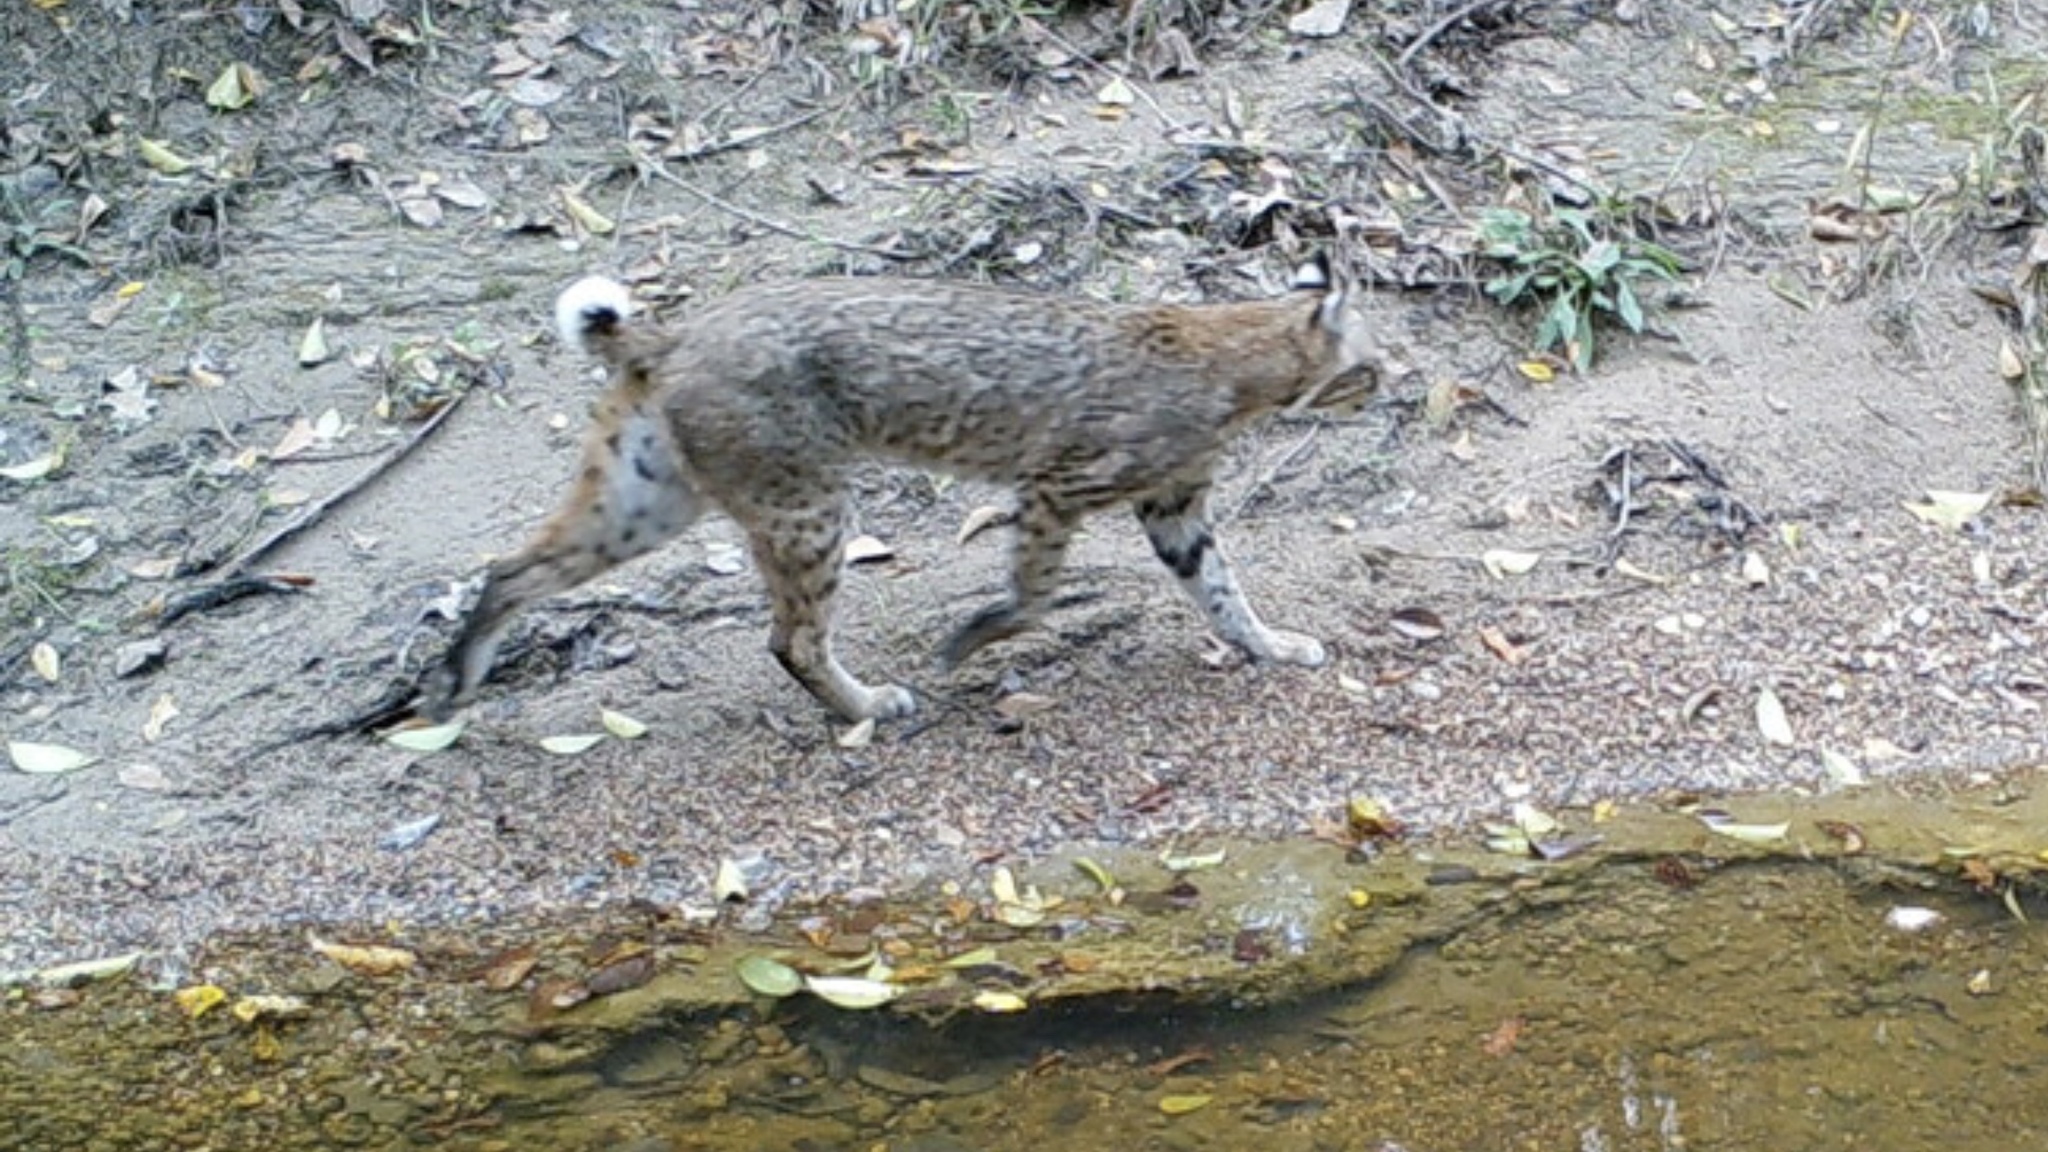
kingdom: Animalia
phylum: Chordata
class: Mammalia
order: Carnivora
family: Felidae
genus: Lynx
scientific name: Lynx rufus
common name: Bobcat
